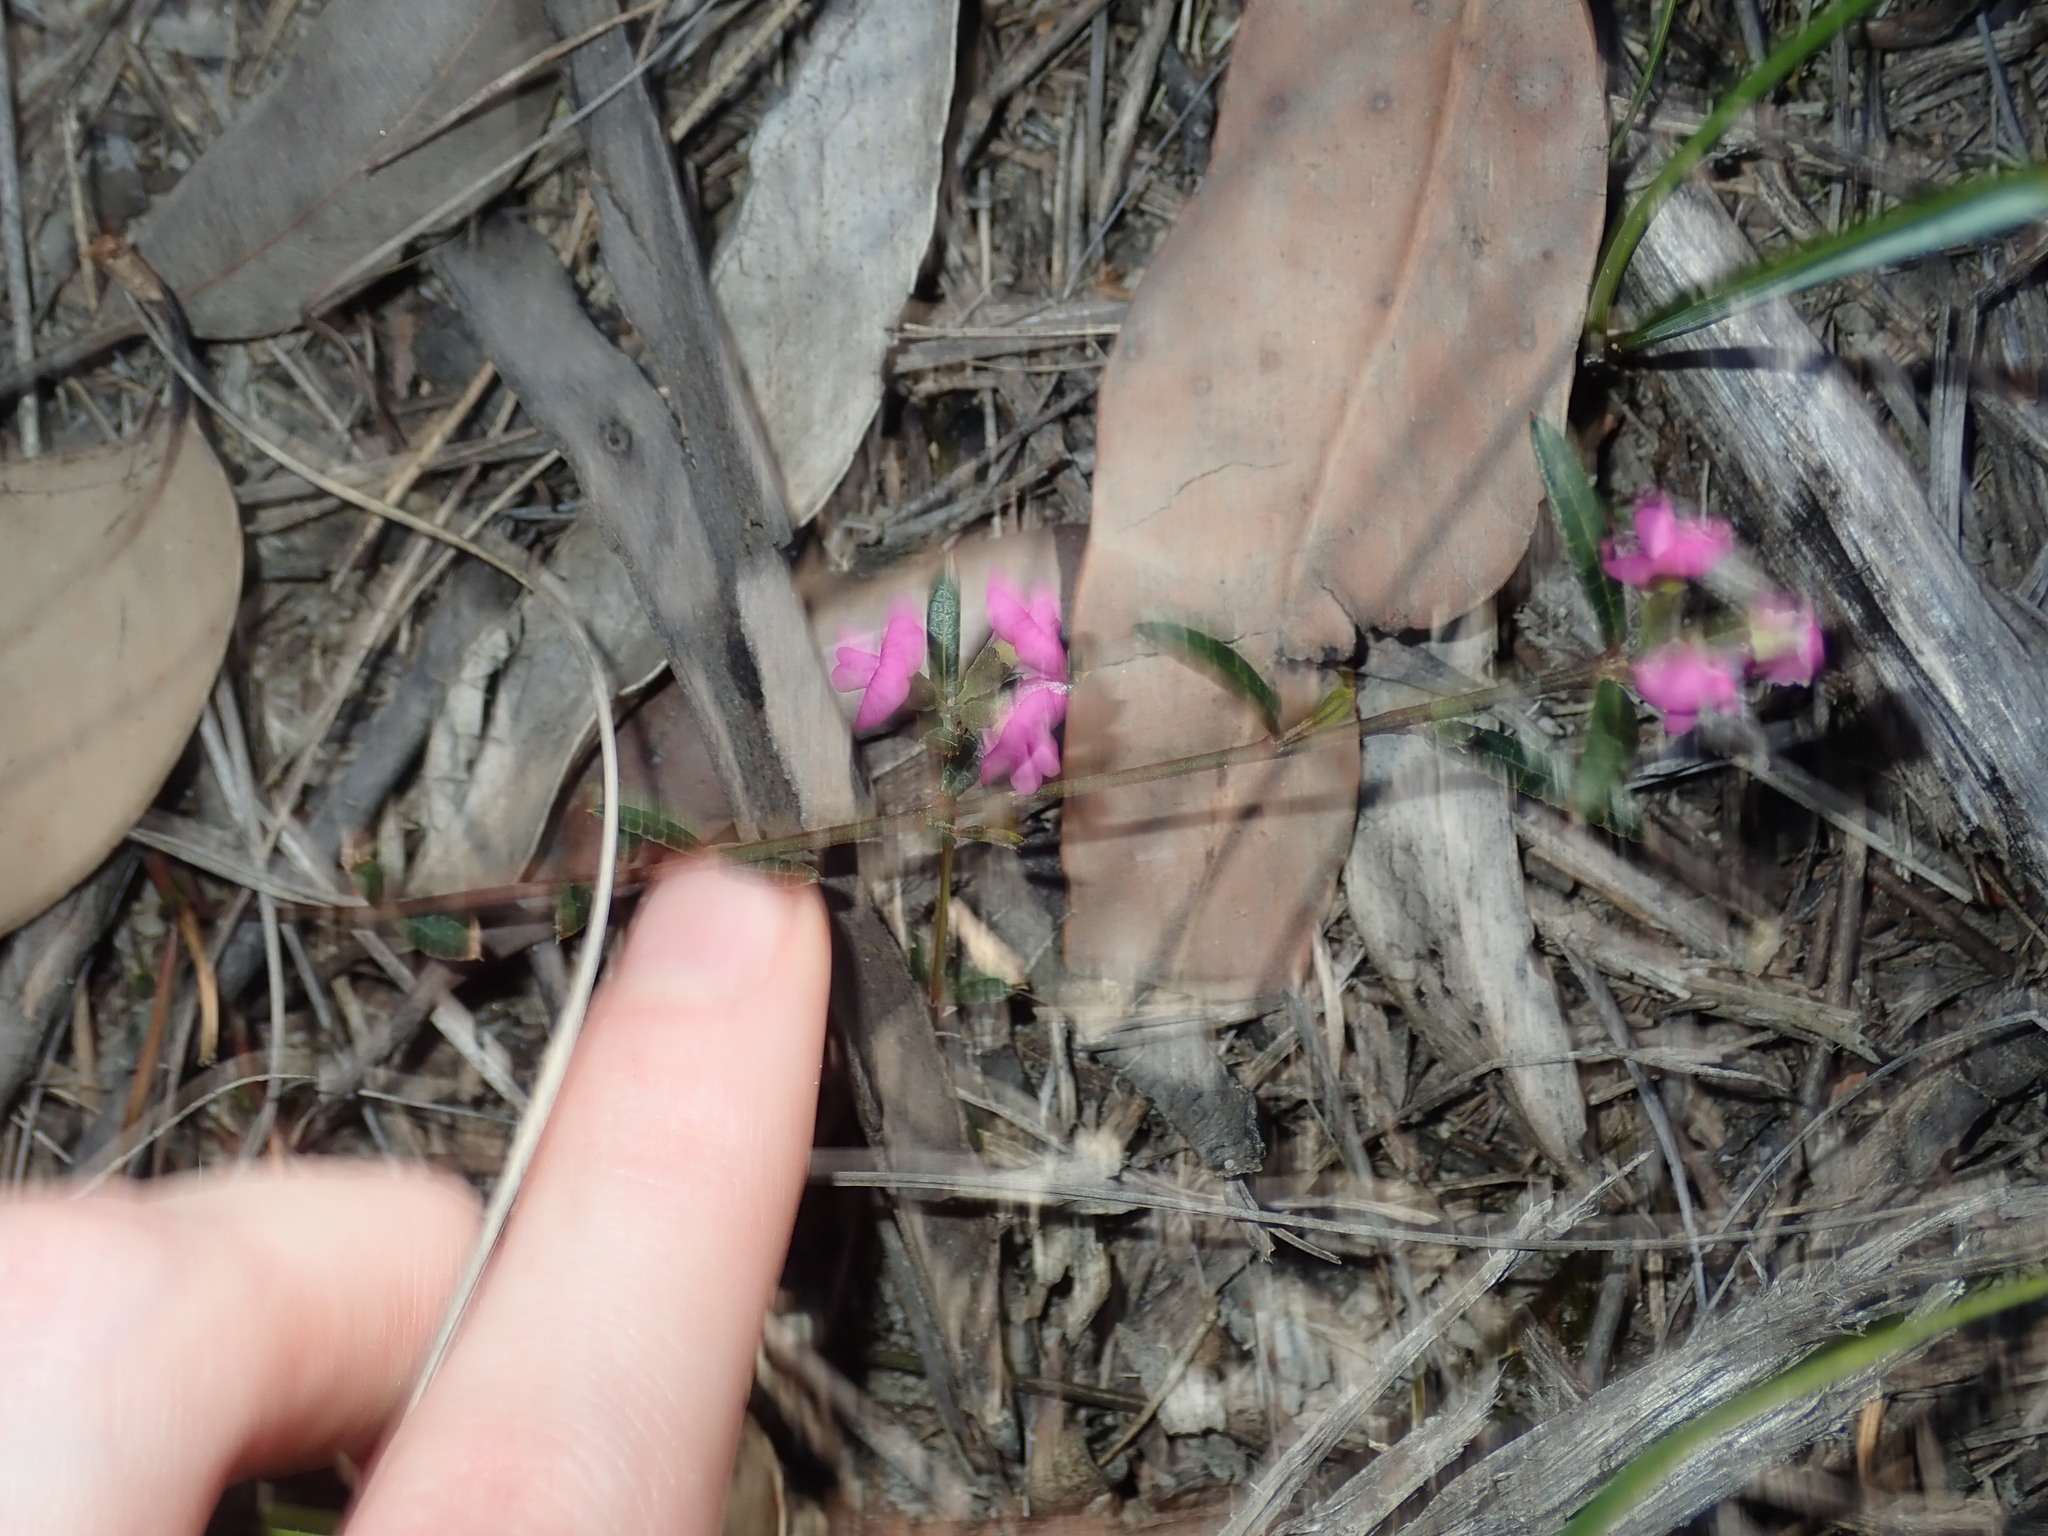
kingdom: Plantae
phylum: Tracheophyta
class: Magnoliopsida
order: Fabales
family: Fabaceae
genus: Mirbelia
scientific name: Mirbelia rubiifolia
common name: Heathy mirbelia
